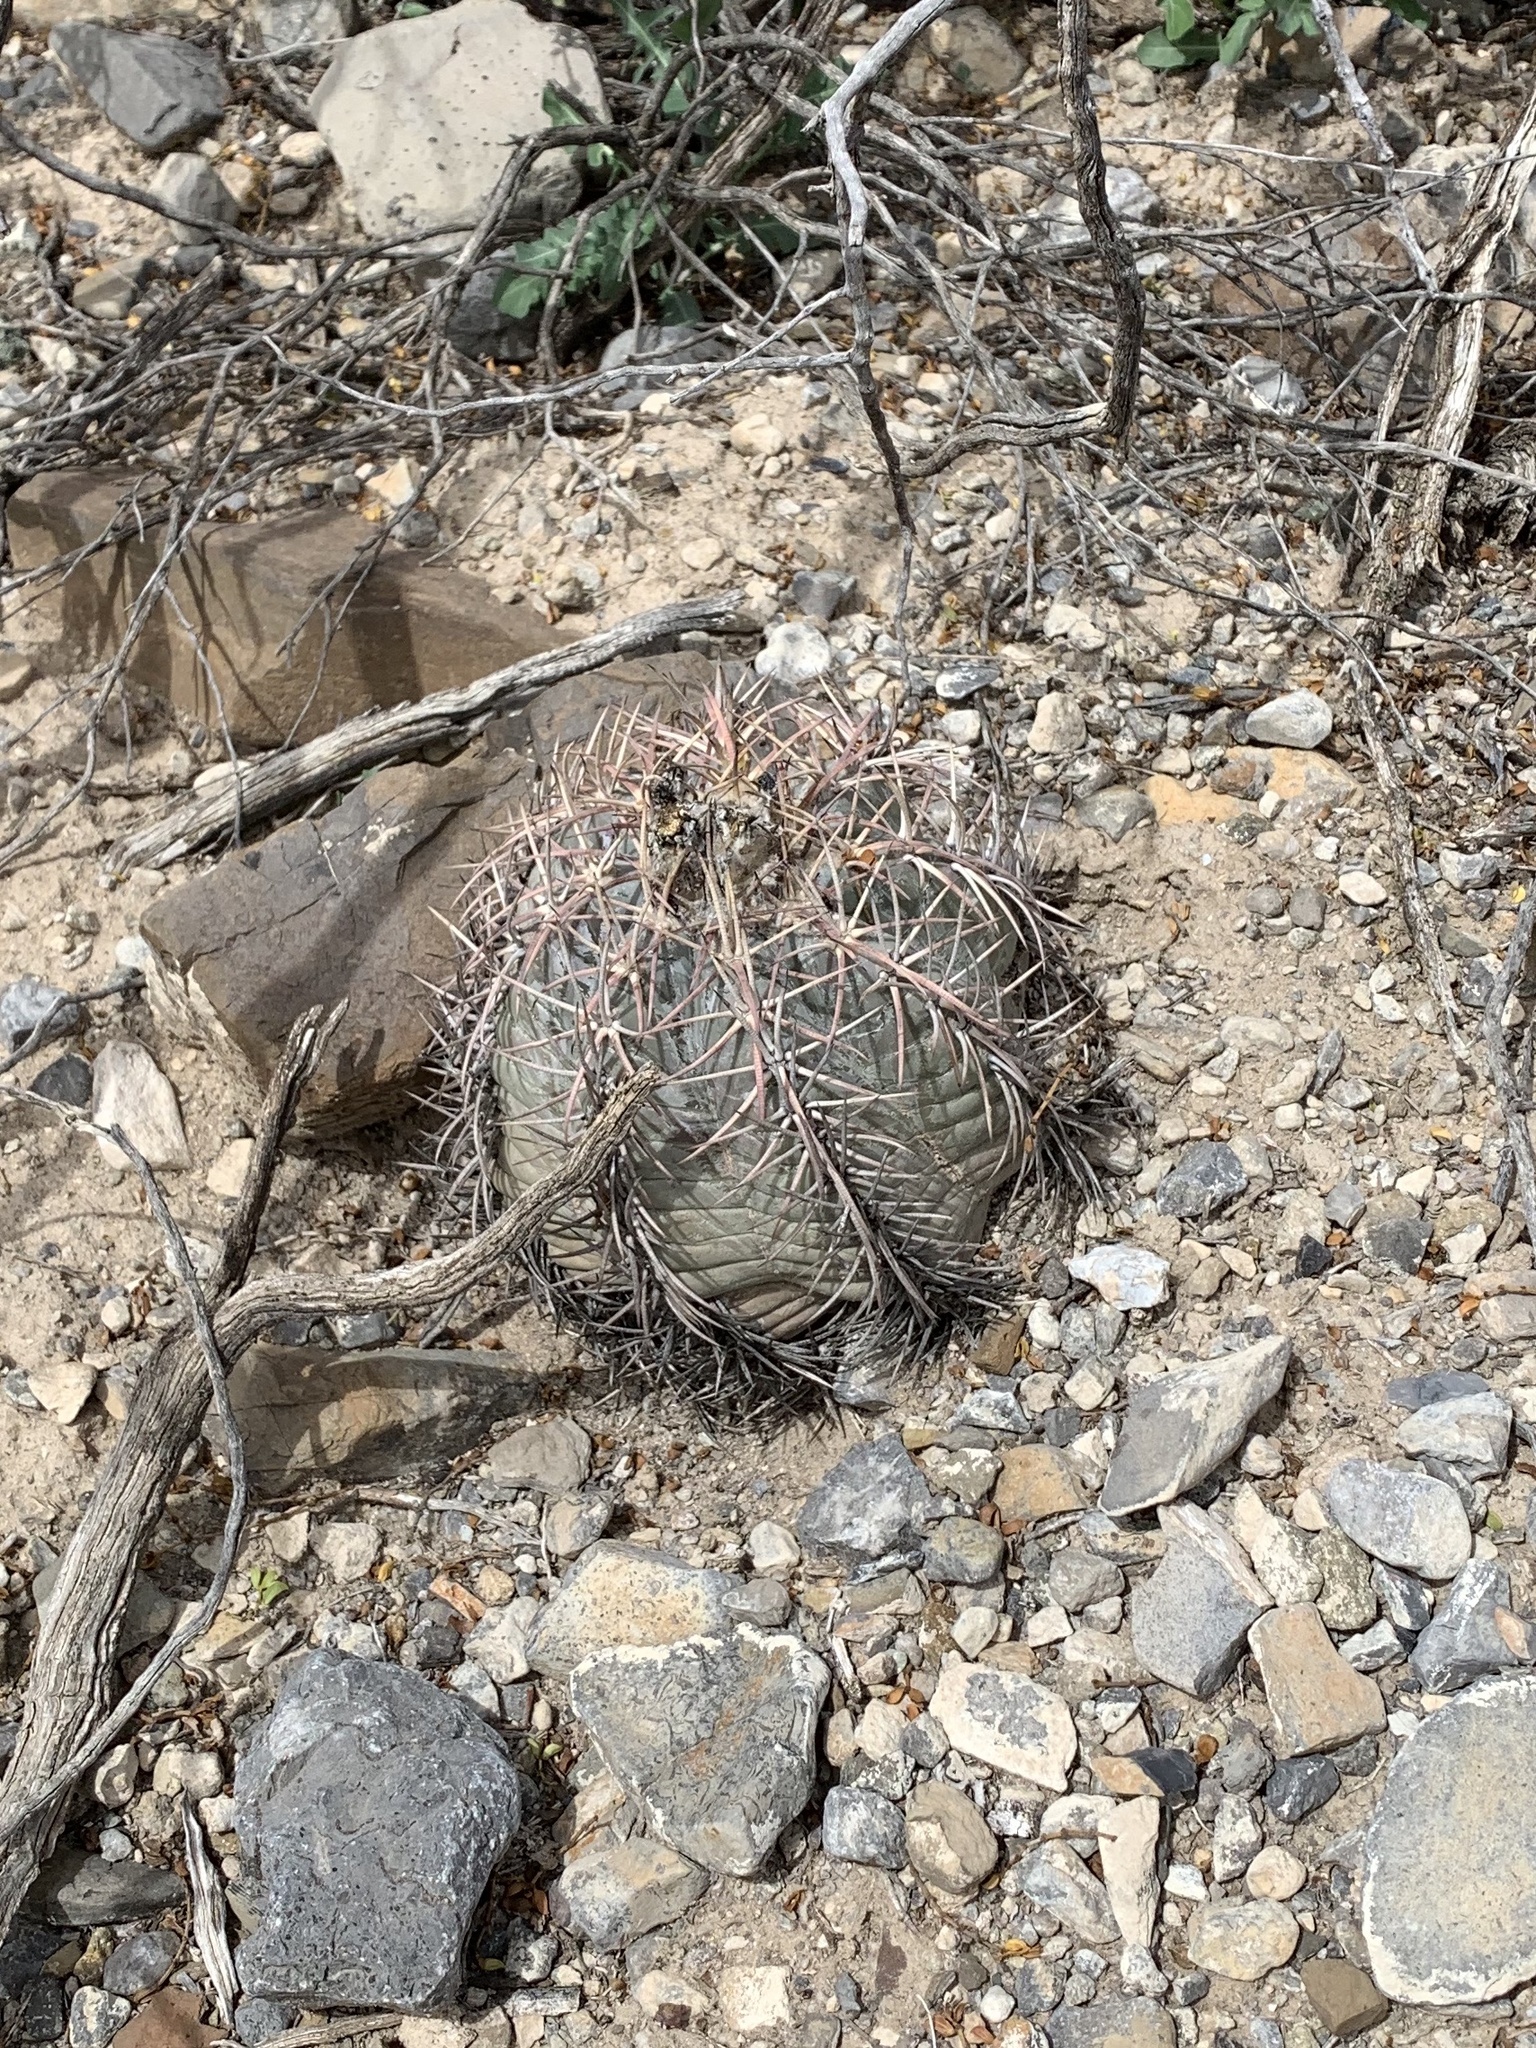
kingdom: Plantae
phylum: Tracheophyta
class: Magnoliopsida
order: Caryophyllales
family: Cactaceae
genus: Echinocactus
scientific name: Echinocactus horizonthalonius
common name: Devilshead
